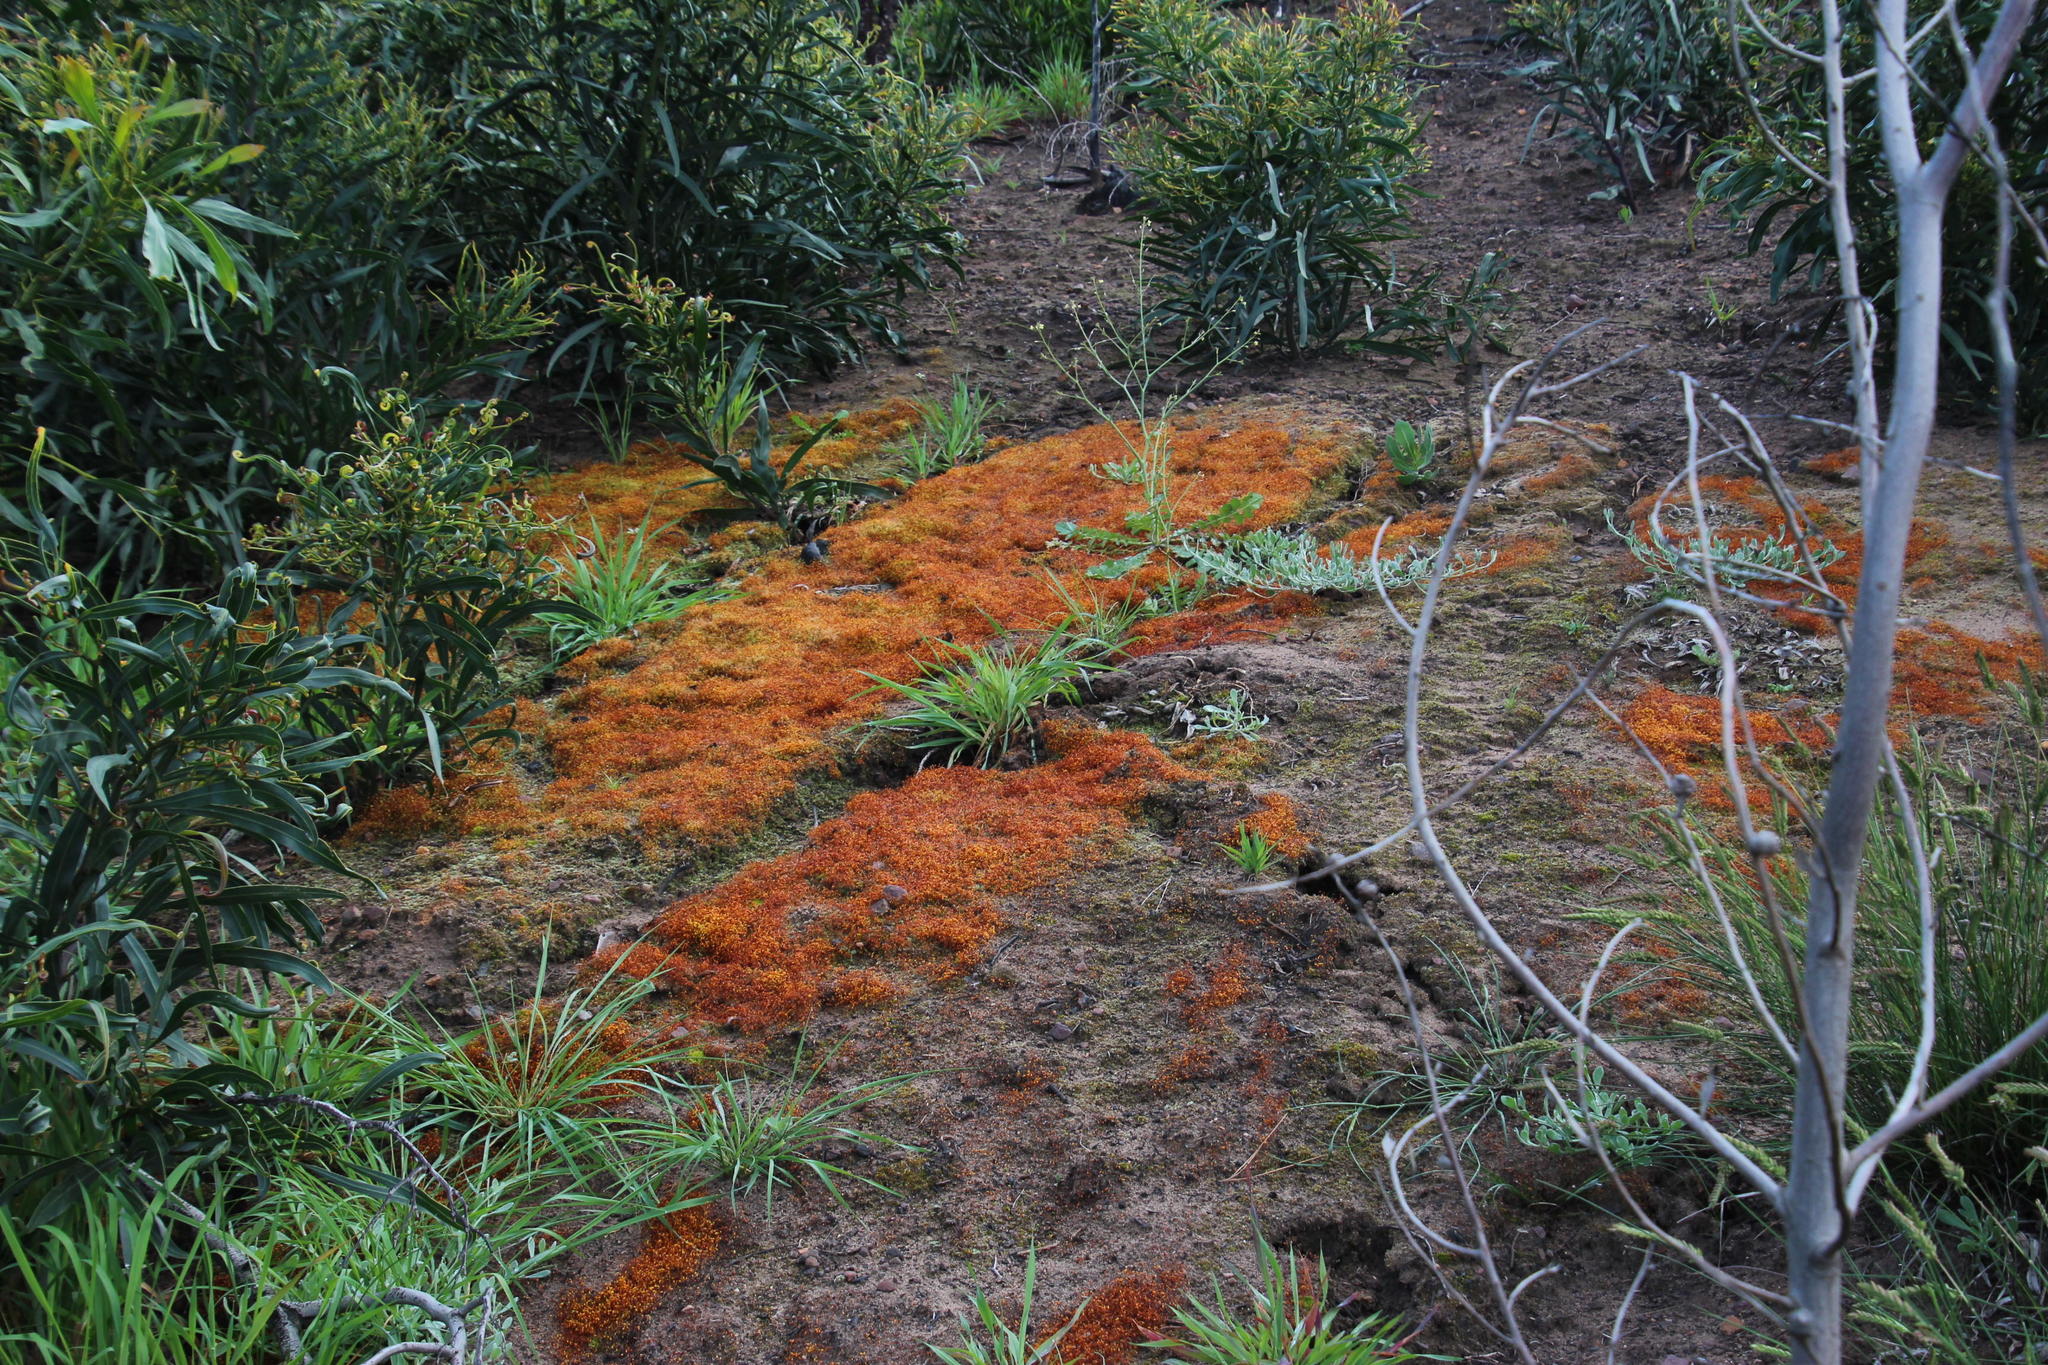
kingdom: Plantae
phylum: Bryophyta
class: Bryopsida
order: Funariales
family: Funariaceae
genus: Funaria
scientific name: Funaria hygrometrica
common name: Common cord moss
